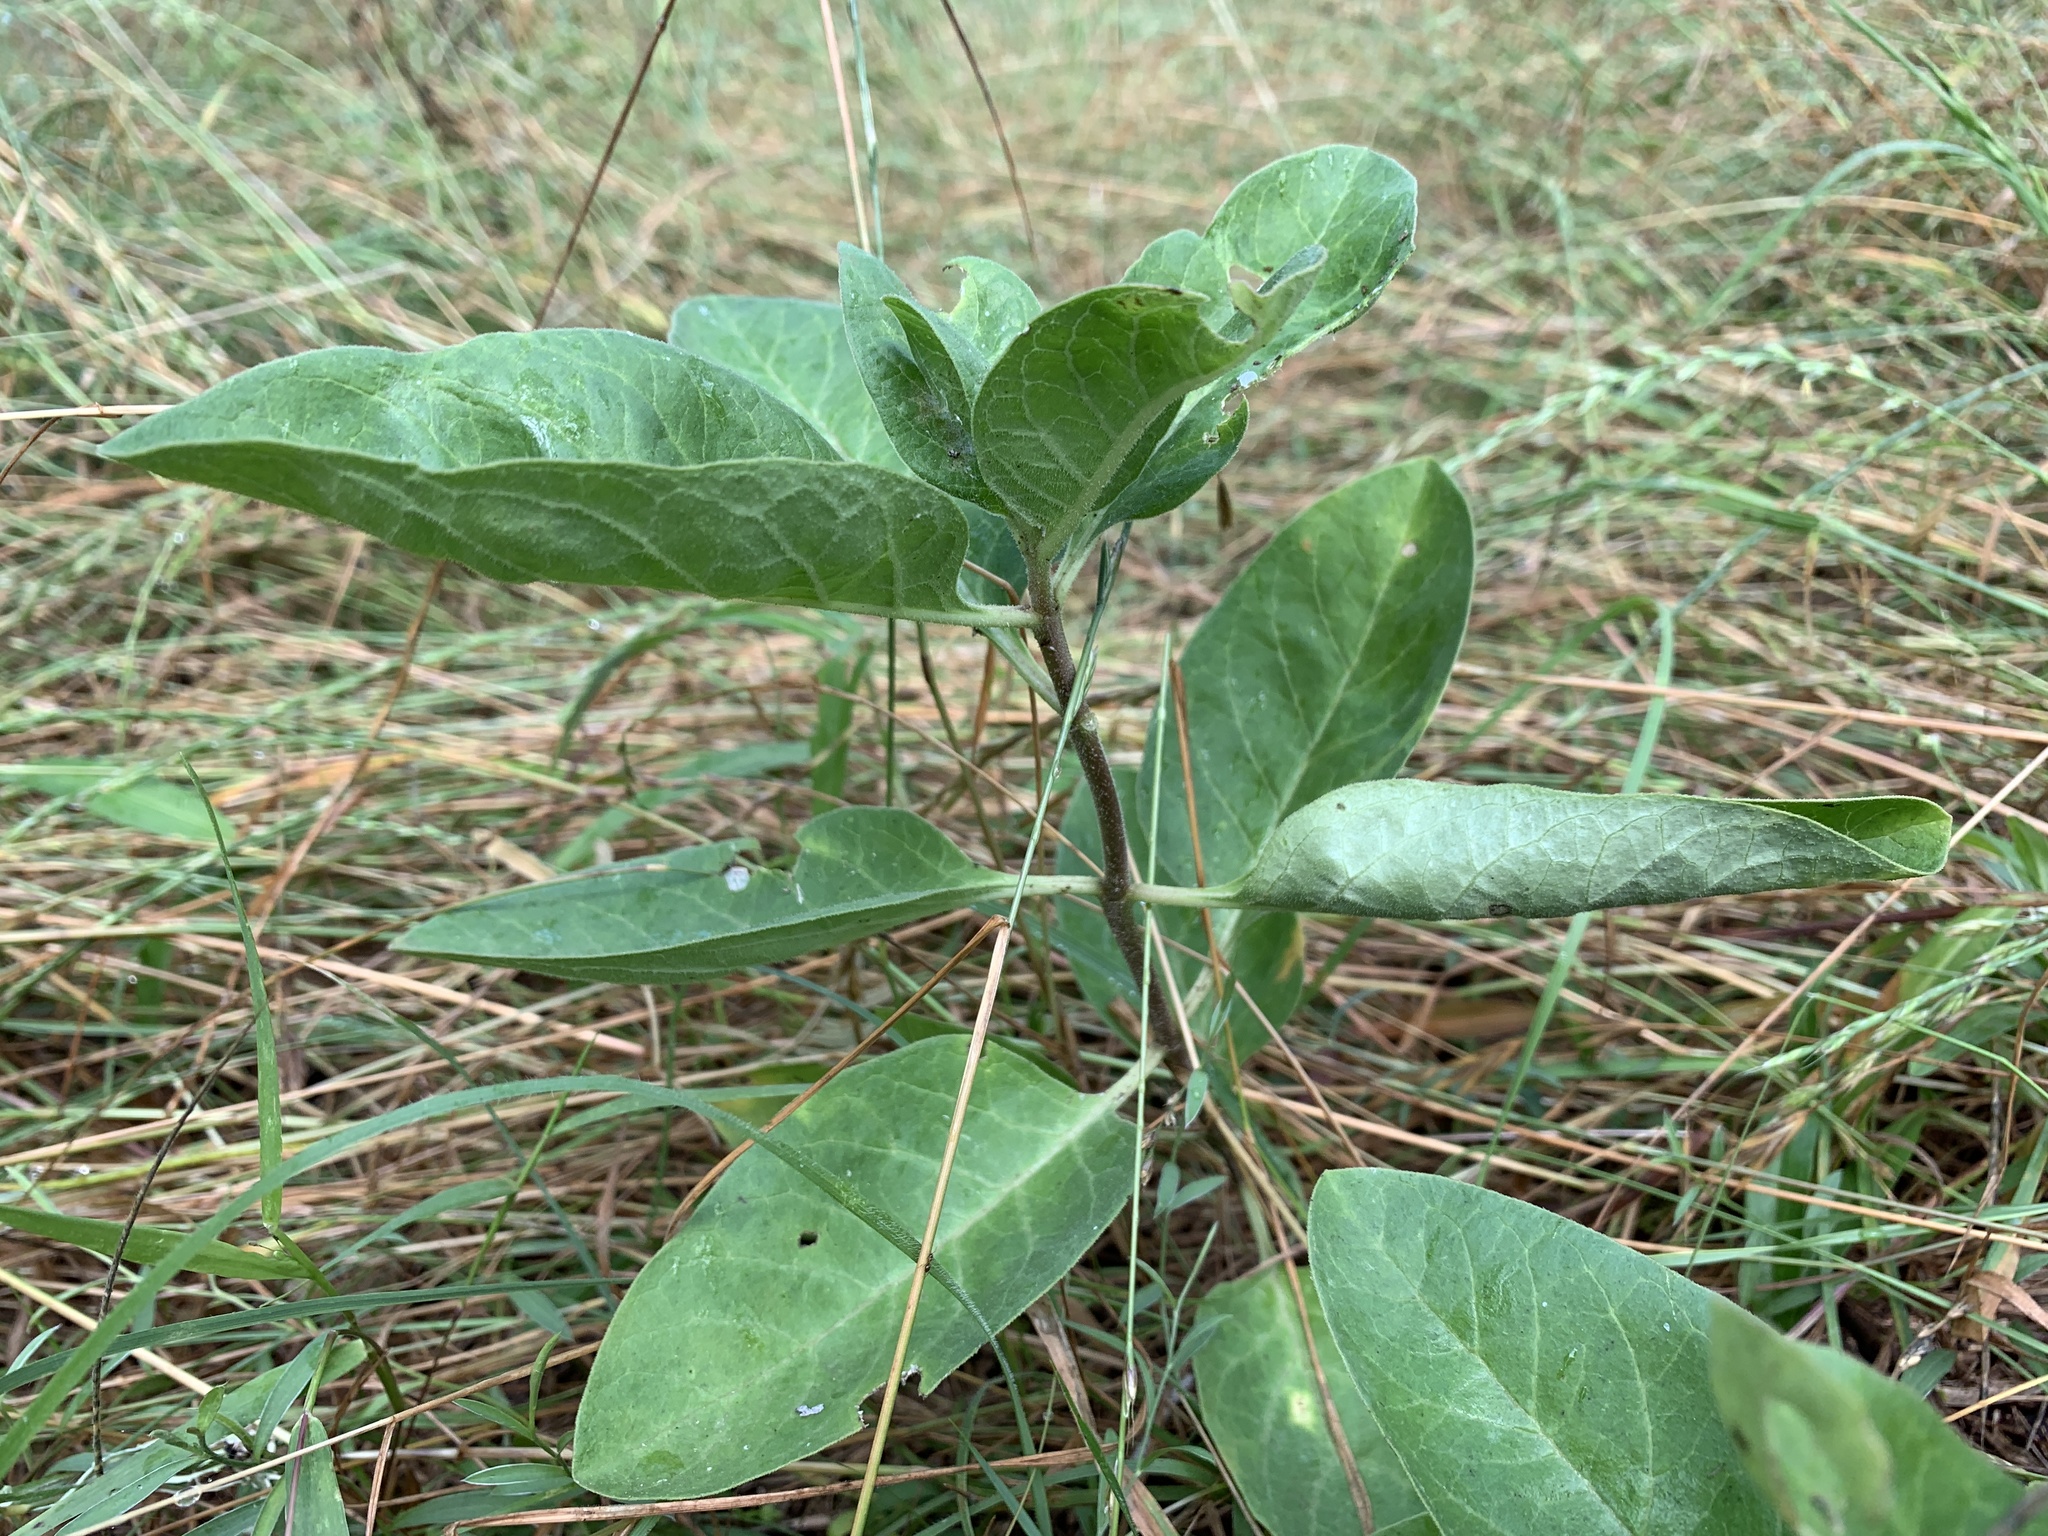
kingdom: Plantae
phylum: Tracheophyta
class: Magnoliopsida
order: Gentianales
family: Apocynaceae
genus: Asclepias
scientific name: Asclepias oenotheroides
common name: Zizotes milkweed
